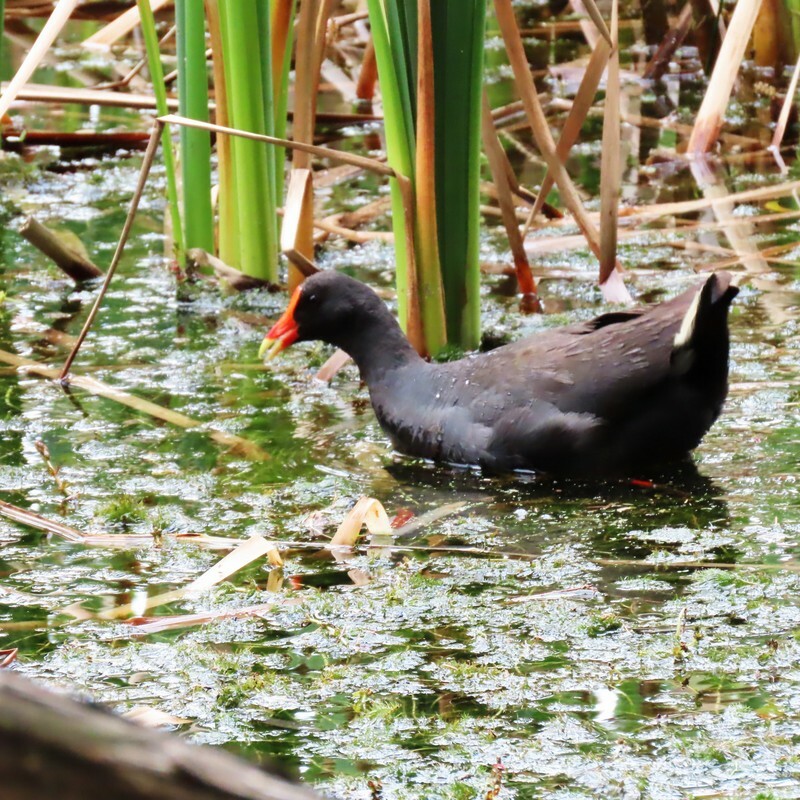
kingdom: Animalia
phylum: Chordata
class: Aves
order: Gruiformes
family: Rallidae
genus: Gallinula
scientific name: Gallinula tenebrosa
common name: Dusky moorhen
